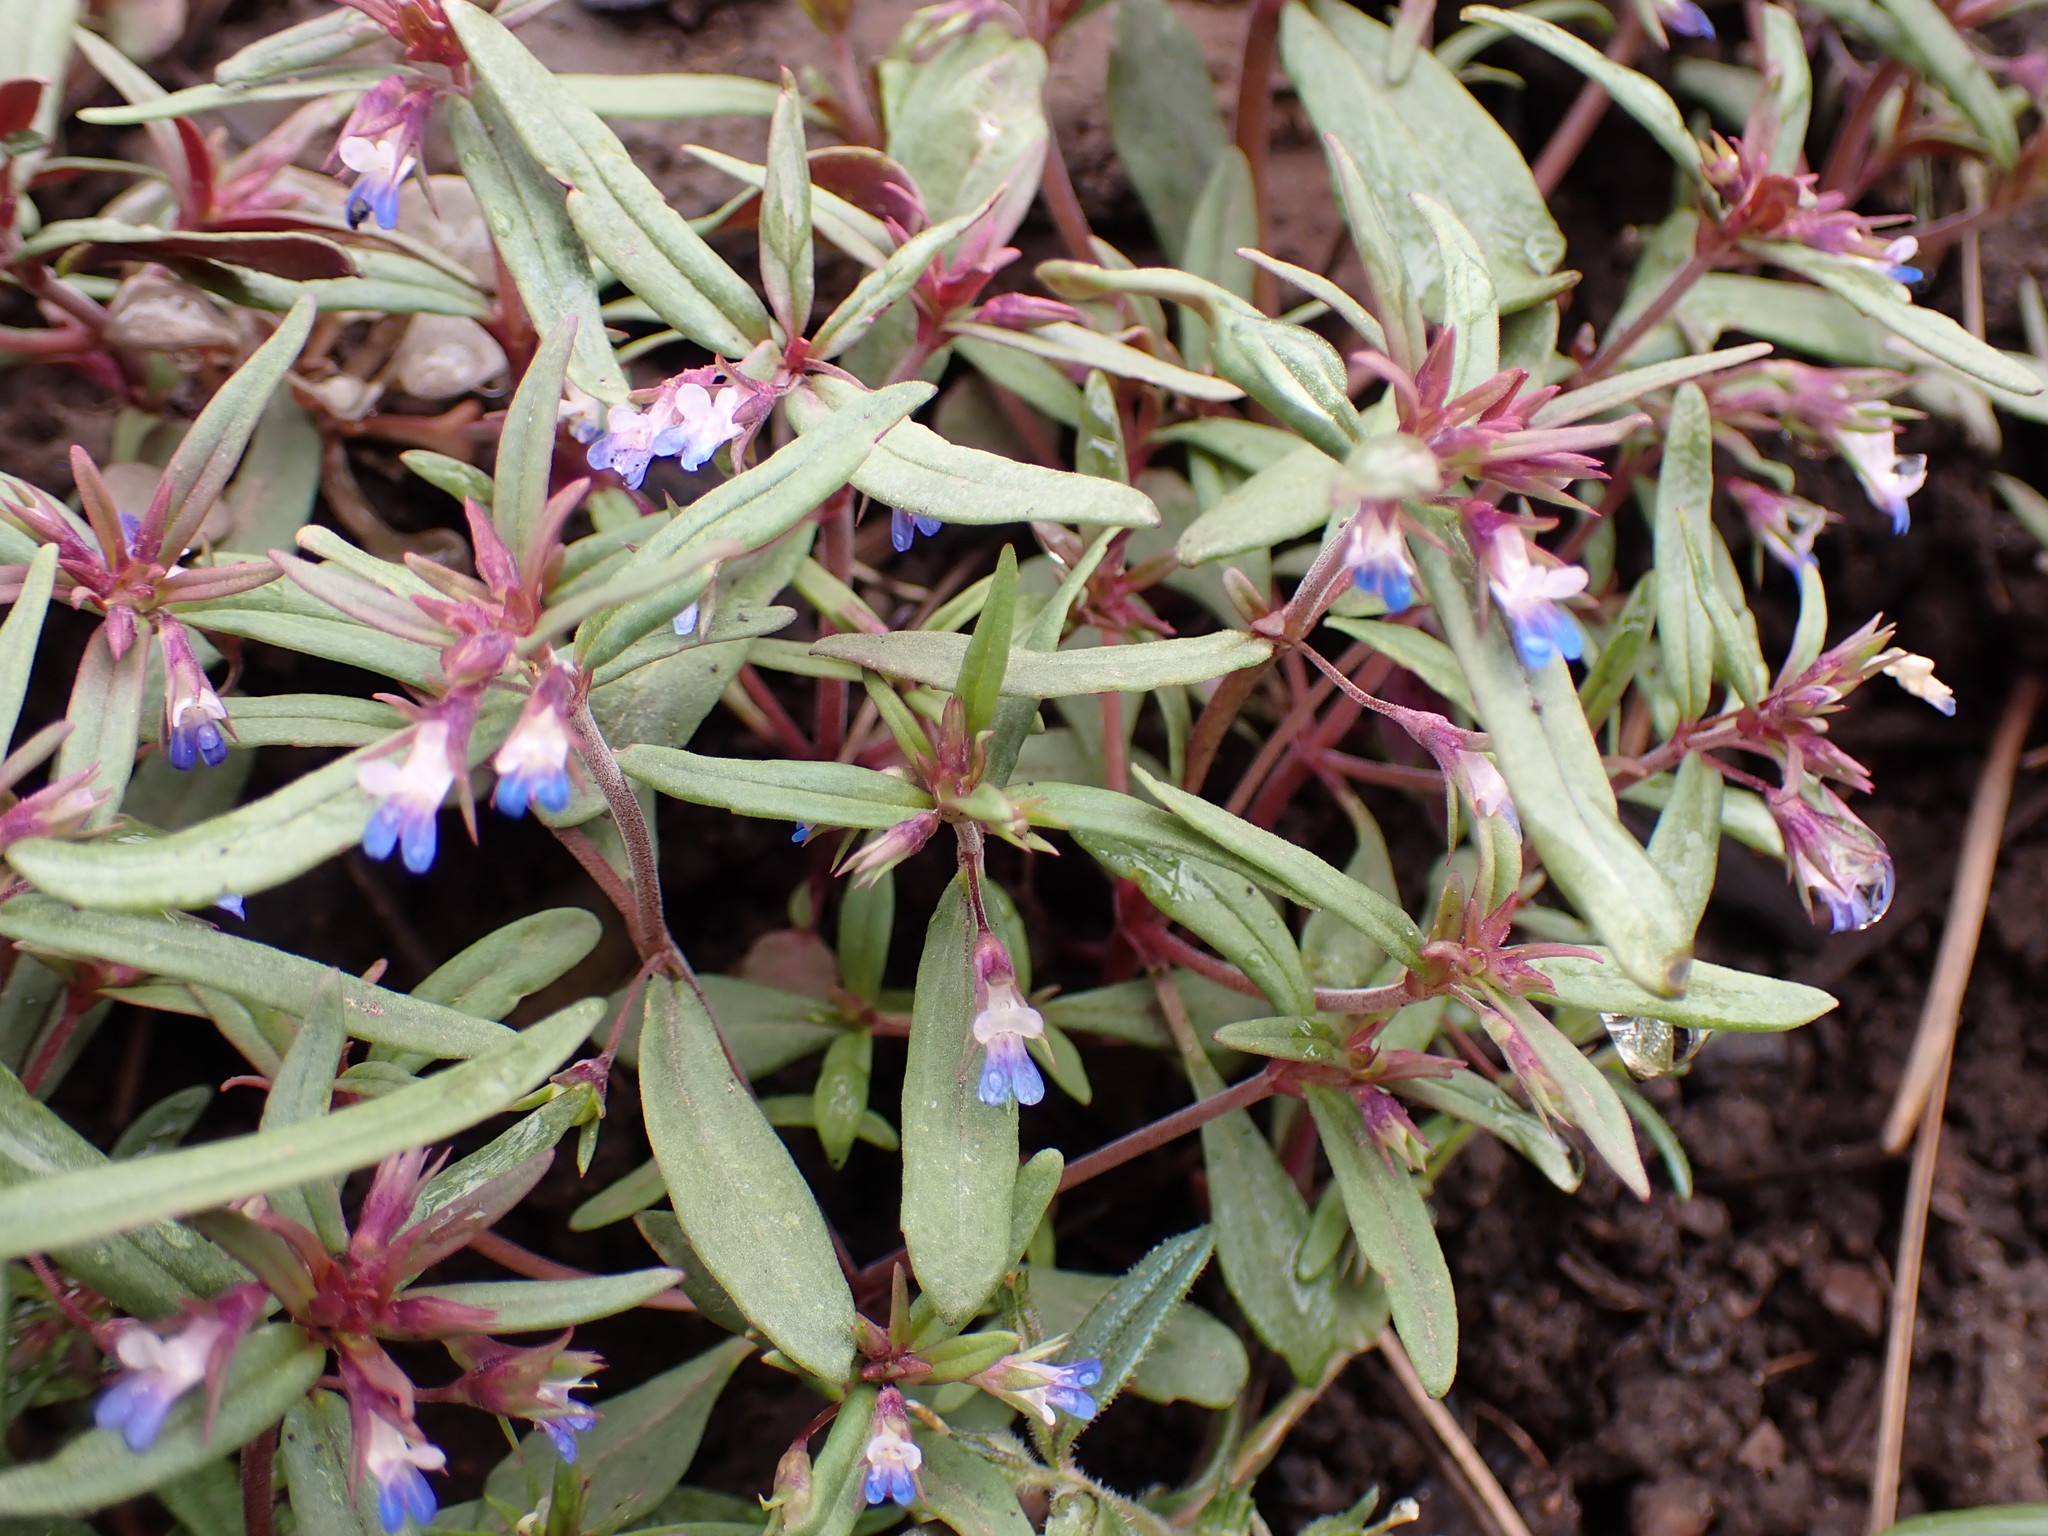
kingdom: Plantae
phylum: Tracheophyta
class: Magnoliopsida
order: Lamiales
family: Plantaginaceae
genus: Collinsia
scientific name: Collinsia parviflora
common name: Blue-lips
